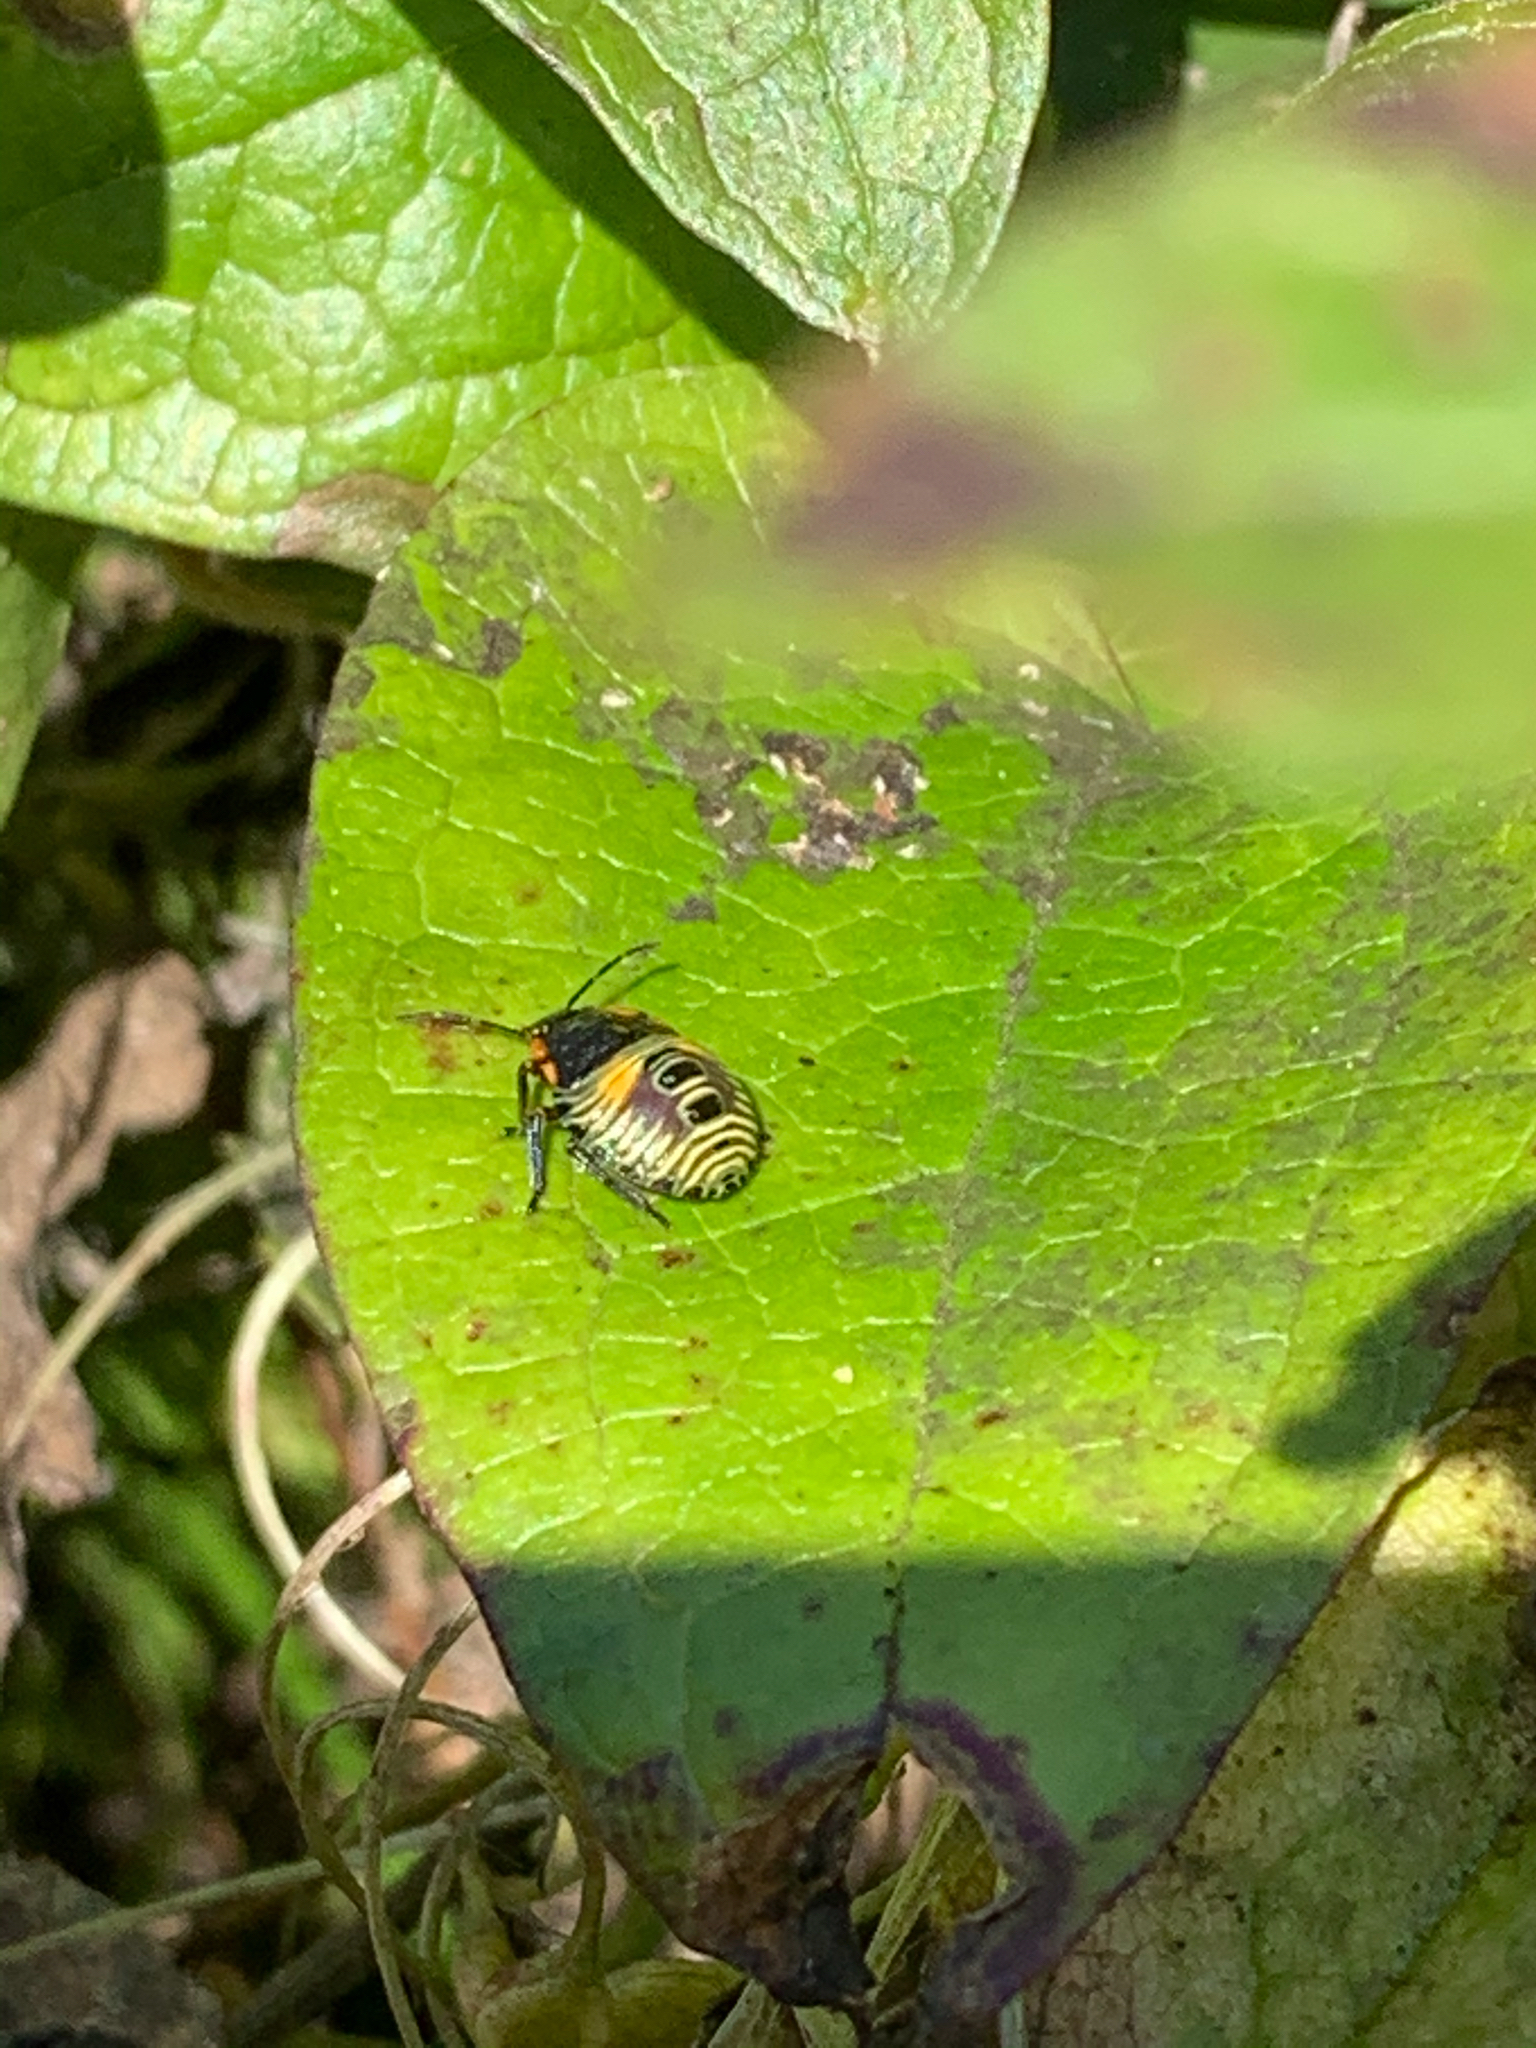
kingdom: Animalia
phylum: Arthropoda
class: Insecta
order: Hemiptera
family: Pentatomidae
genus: Chinavia
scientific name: Chinavia hilaris
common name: Green stink bug
